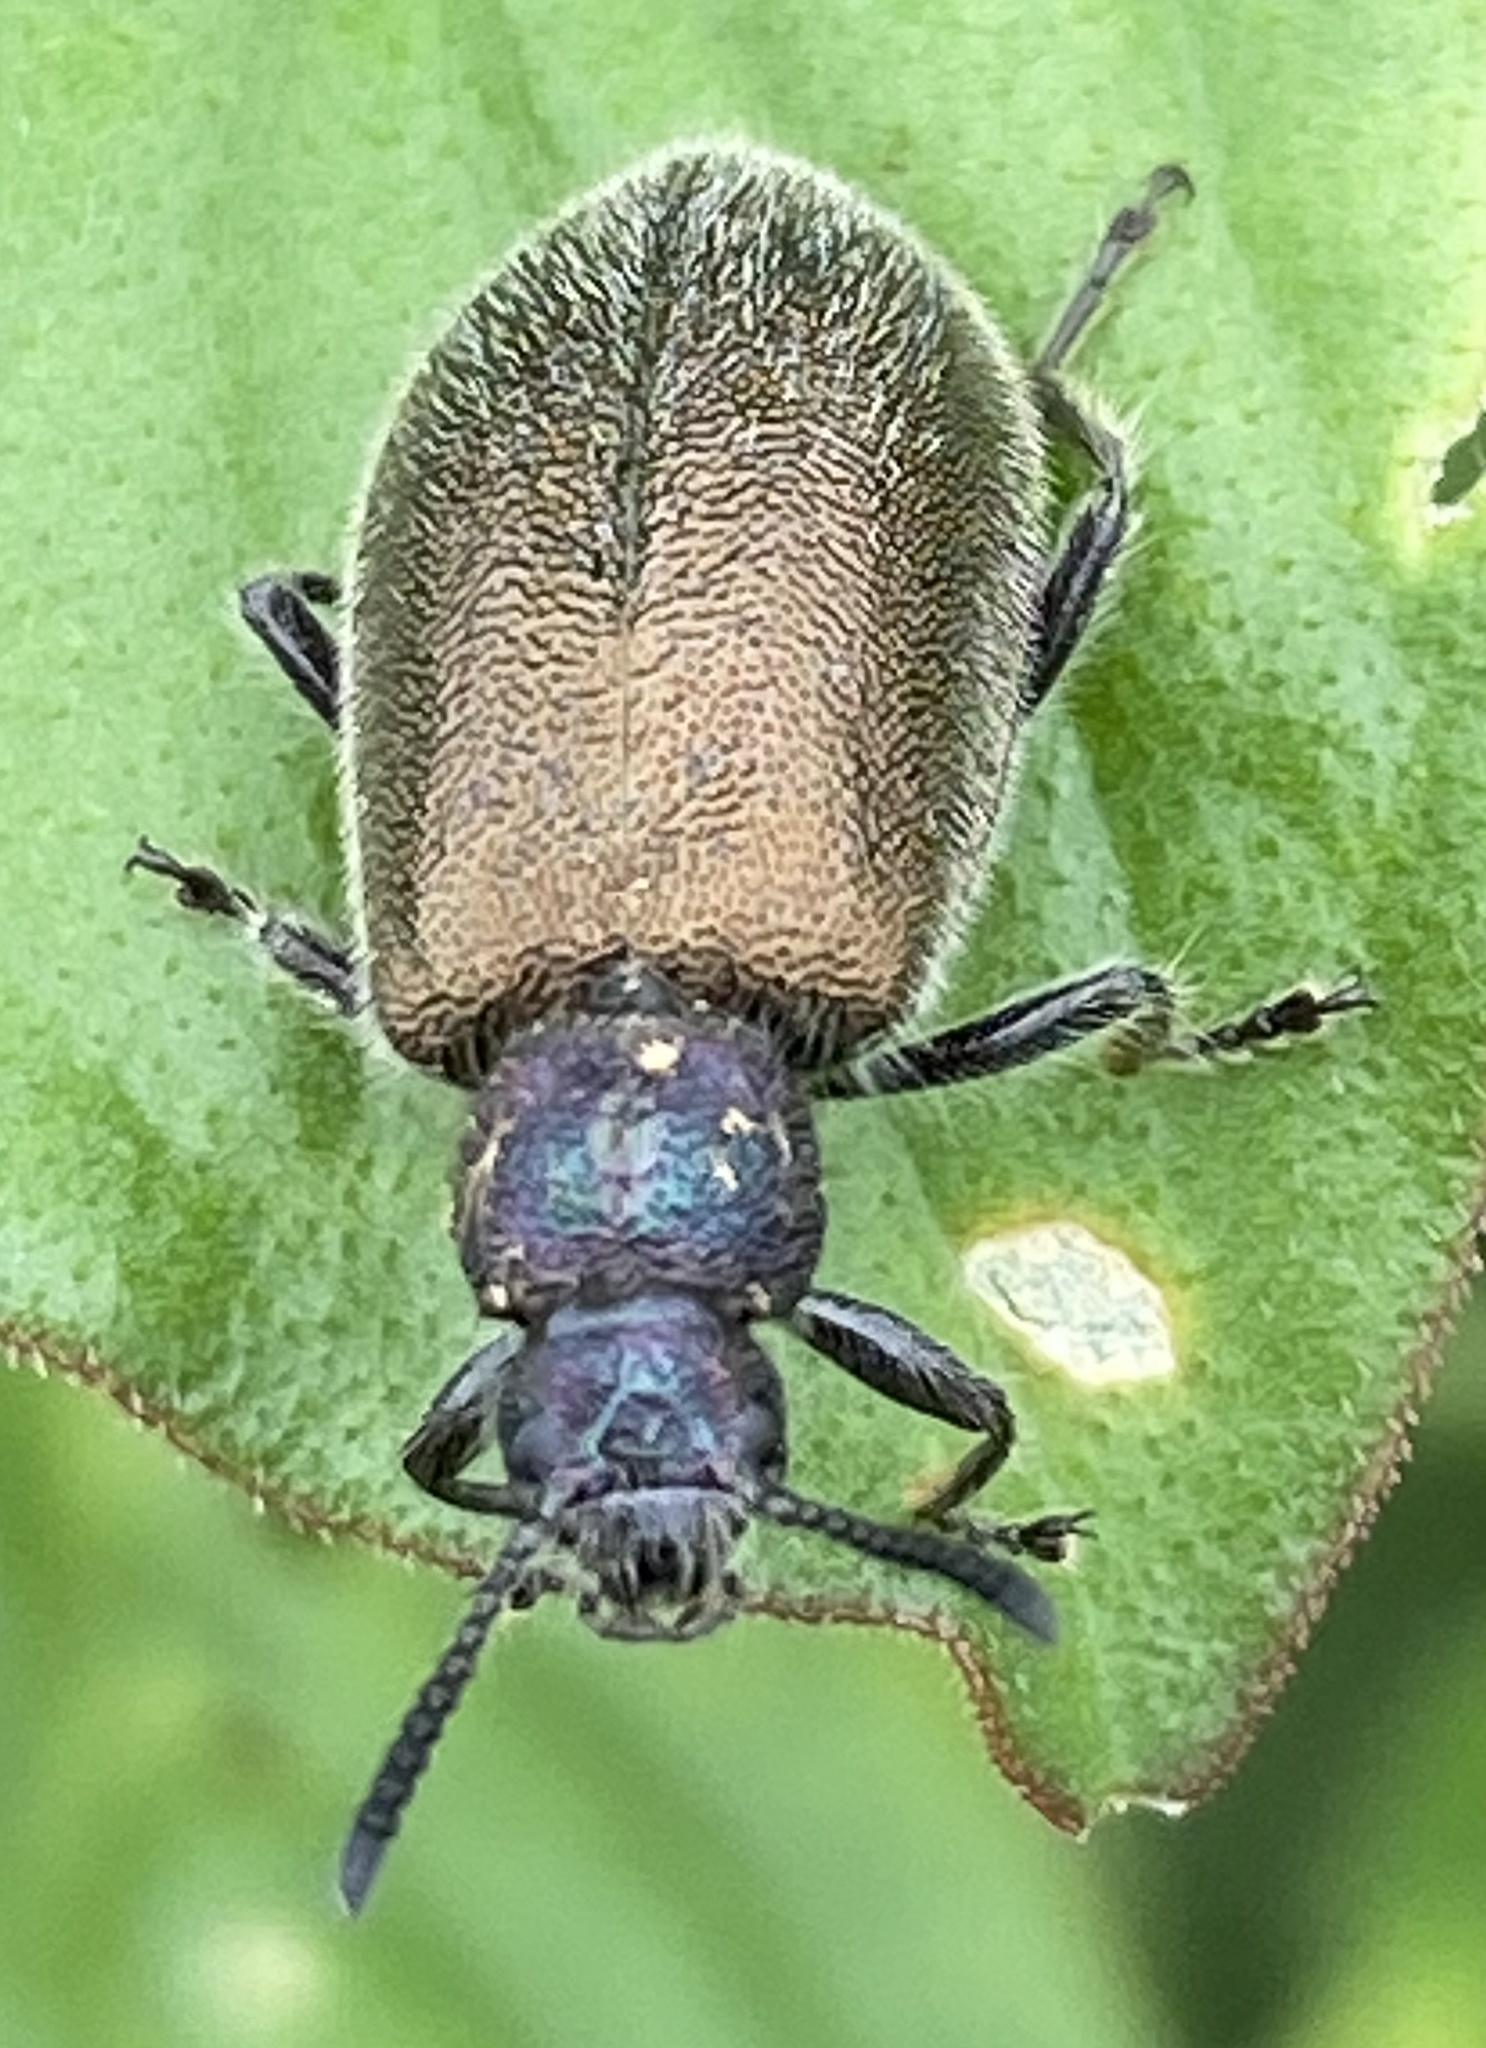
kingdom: Animalia
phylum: Arthropoda
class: Insecta
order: Coleoptera
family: Tenebrionidae
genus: Lagria
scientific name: Lagria villosa
